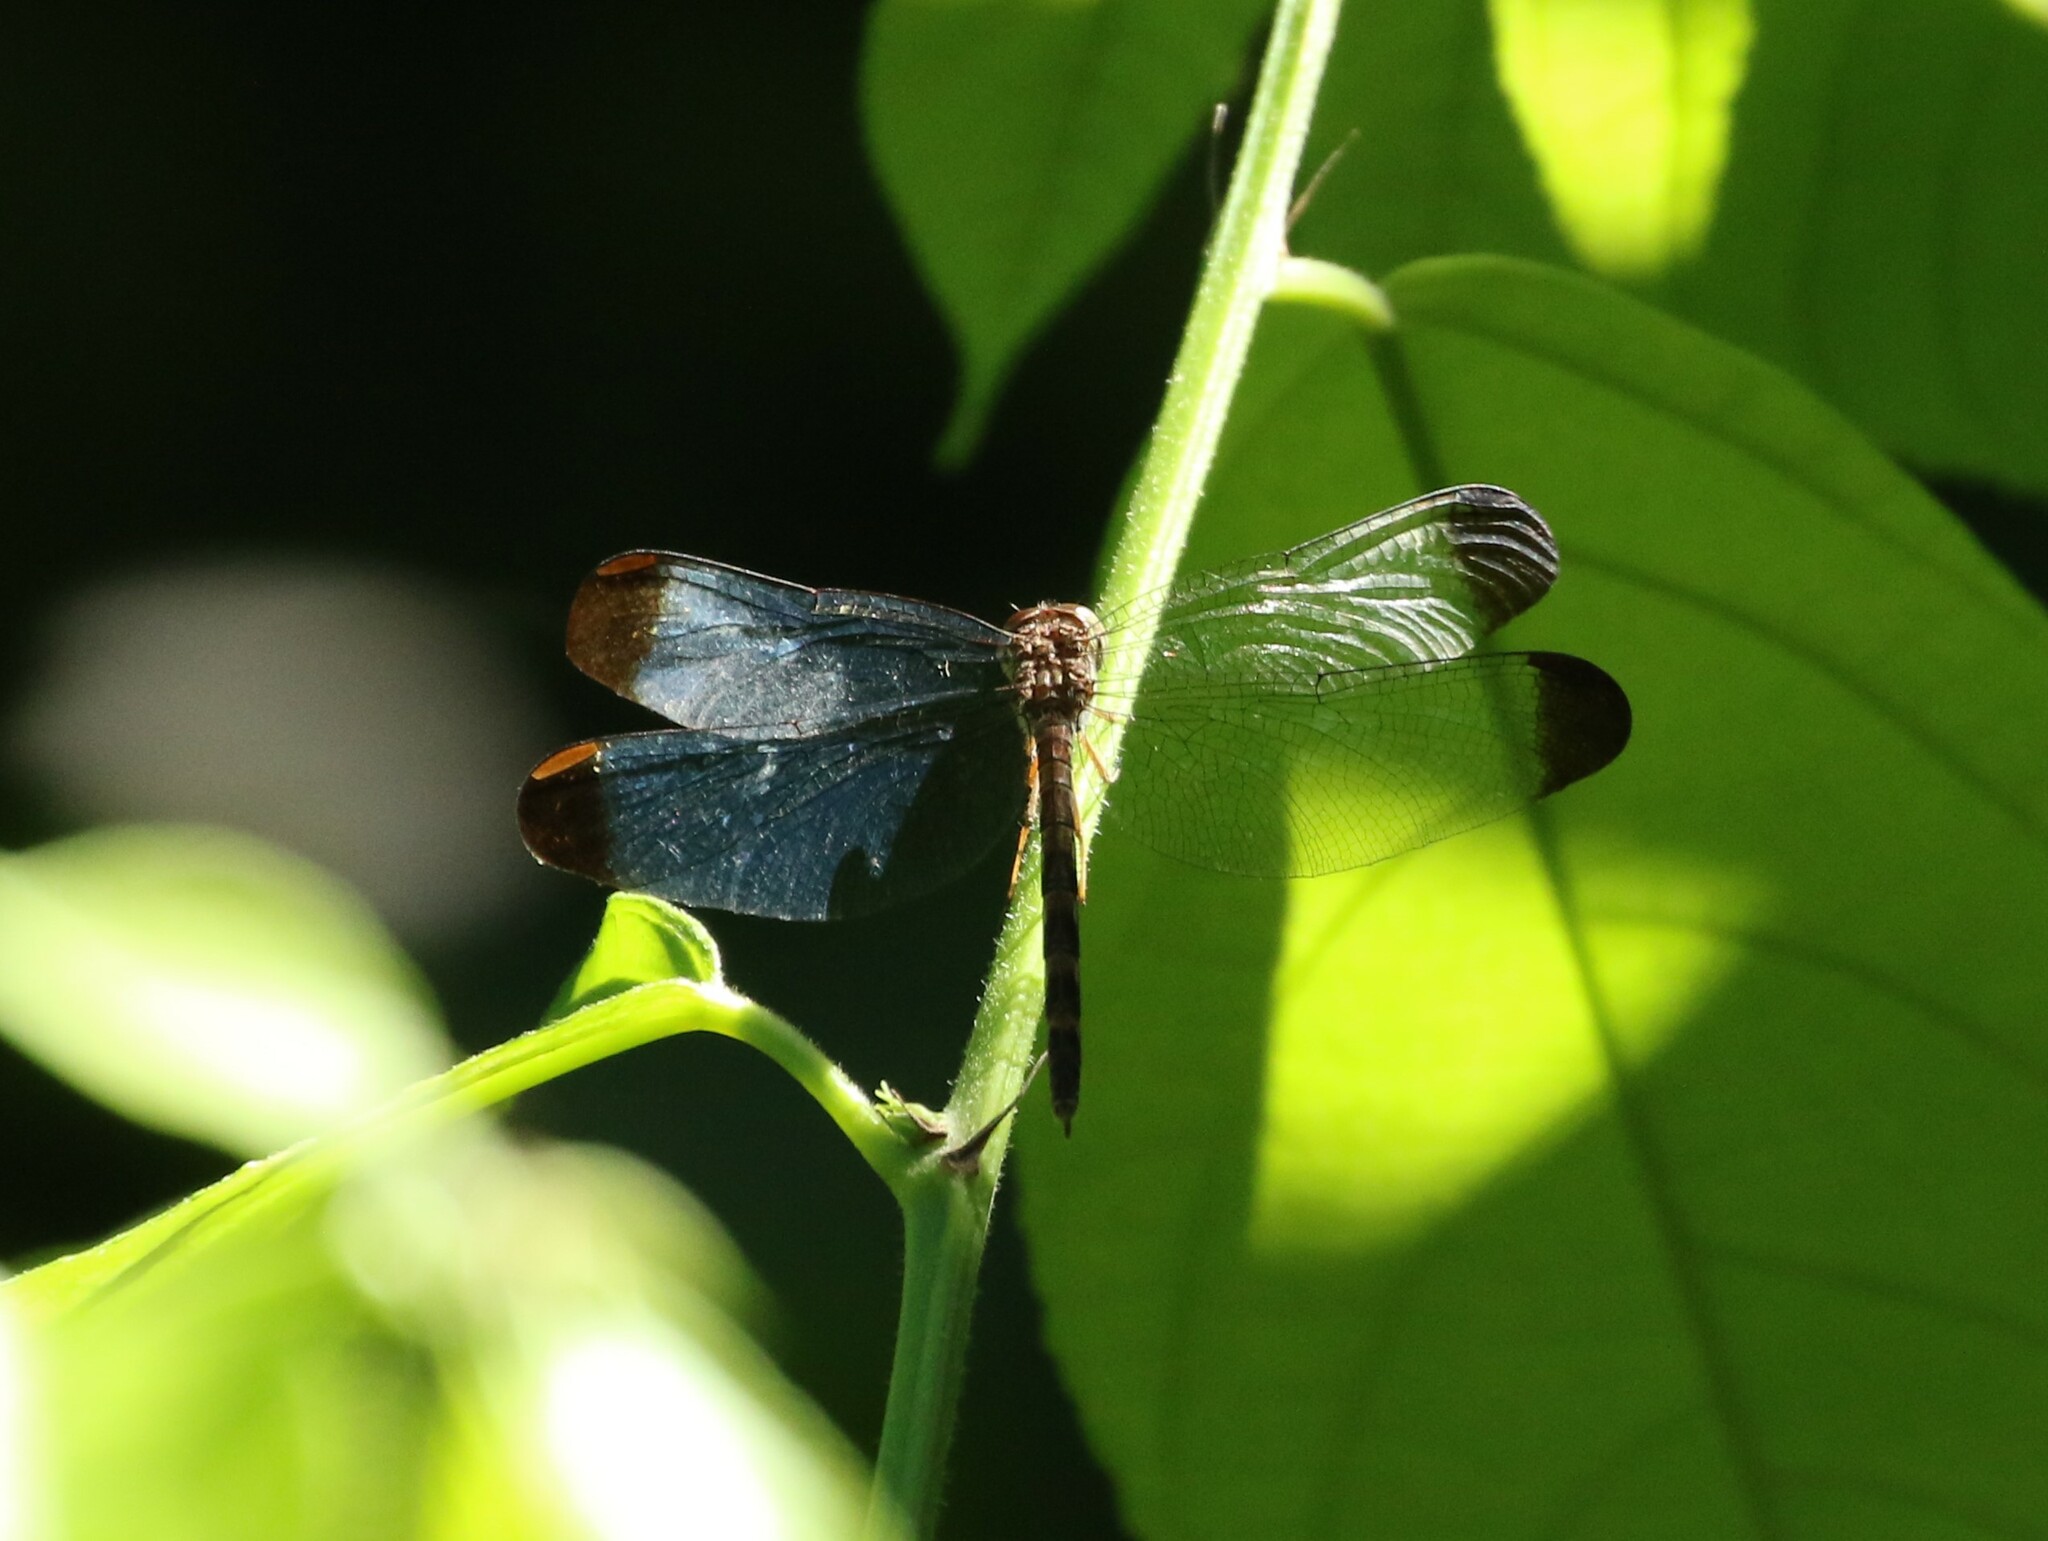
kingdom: Animalia
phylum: Arthropoda
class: Insecta
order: Odonata
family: Libellulidae
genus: Uracis
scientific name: Uracis imbuta
